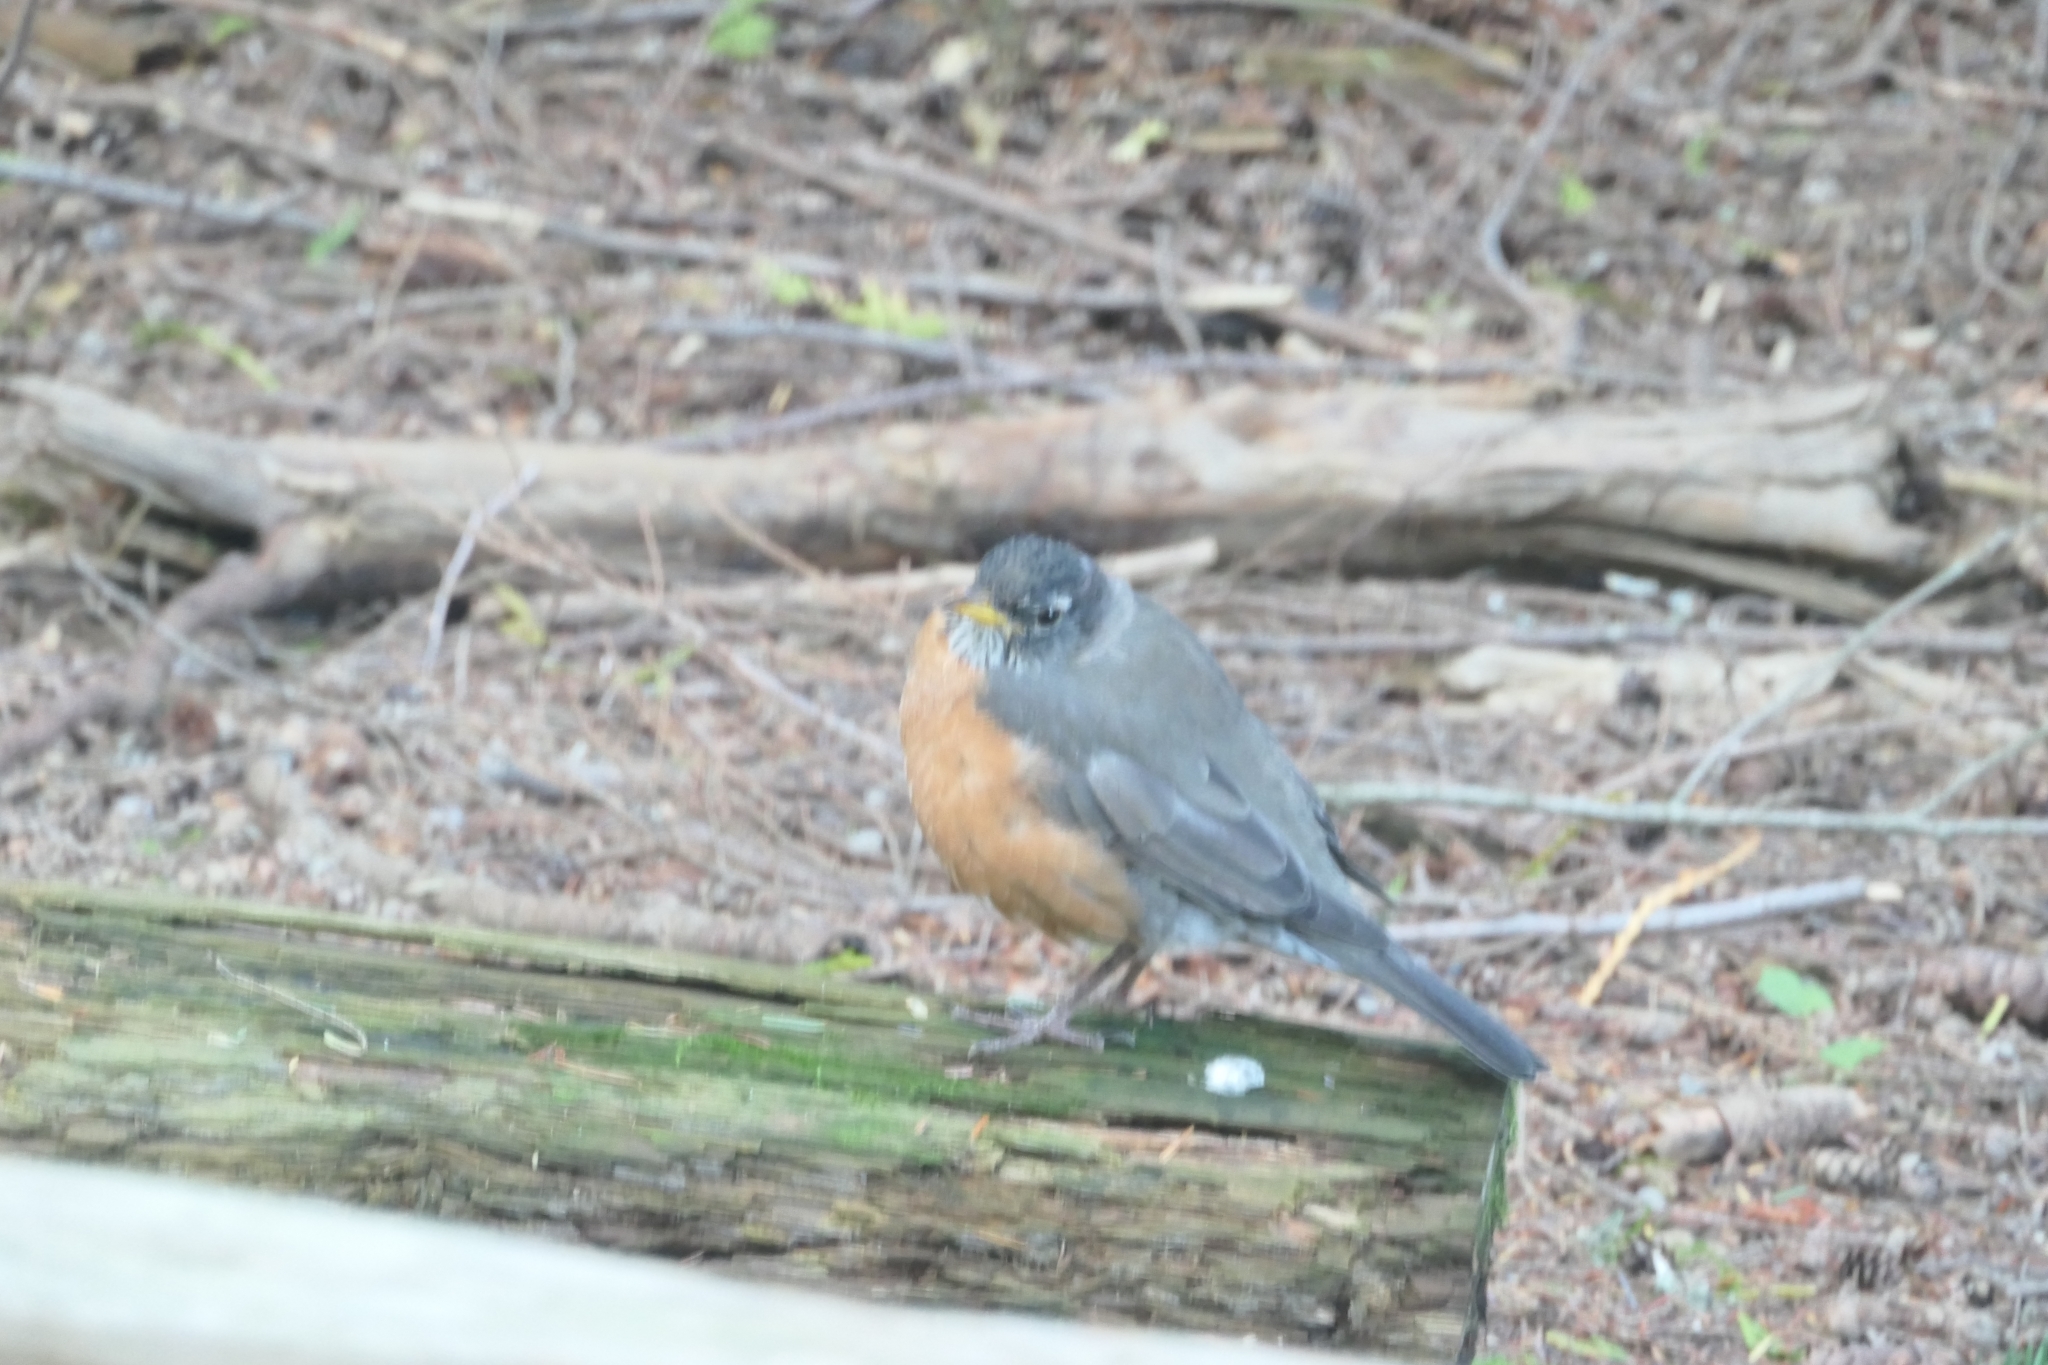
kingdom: Animalia
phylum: Chordata
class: Aves
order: Passeriformes
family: Turdidae
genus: Turdus
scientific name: Turdus migratorius
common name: American robin
